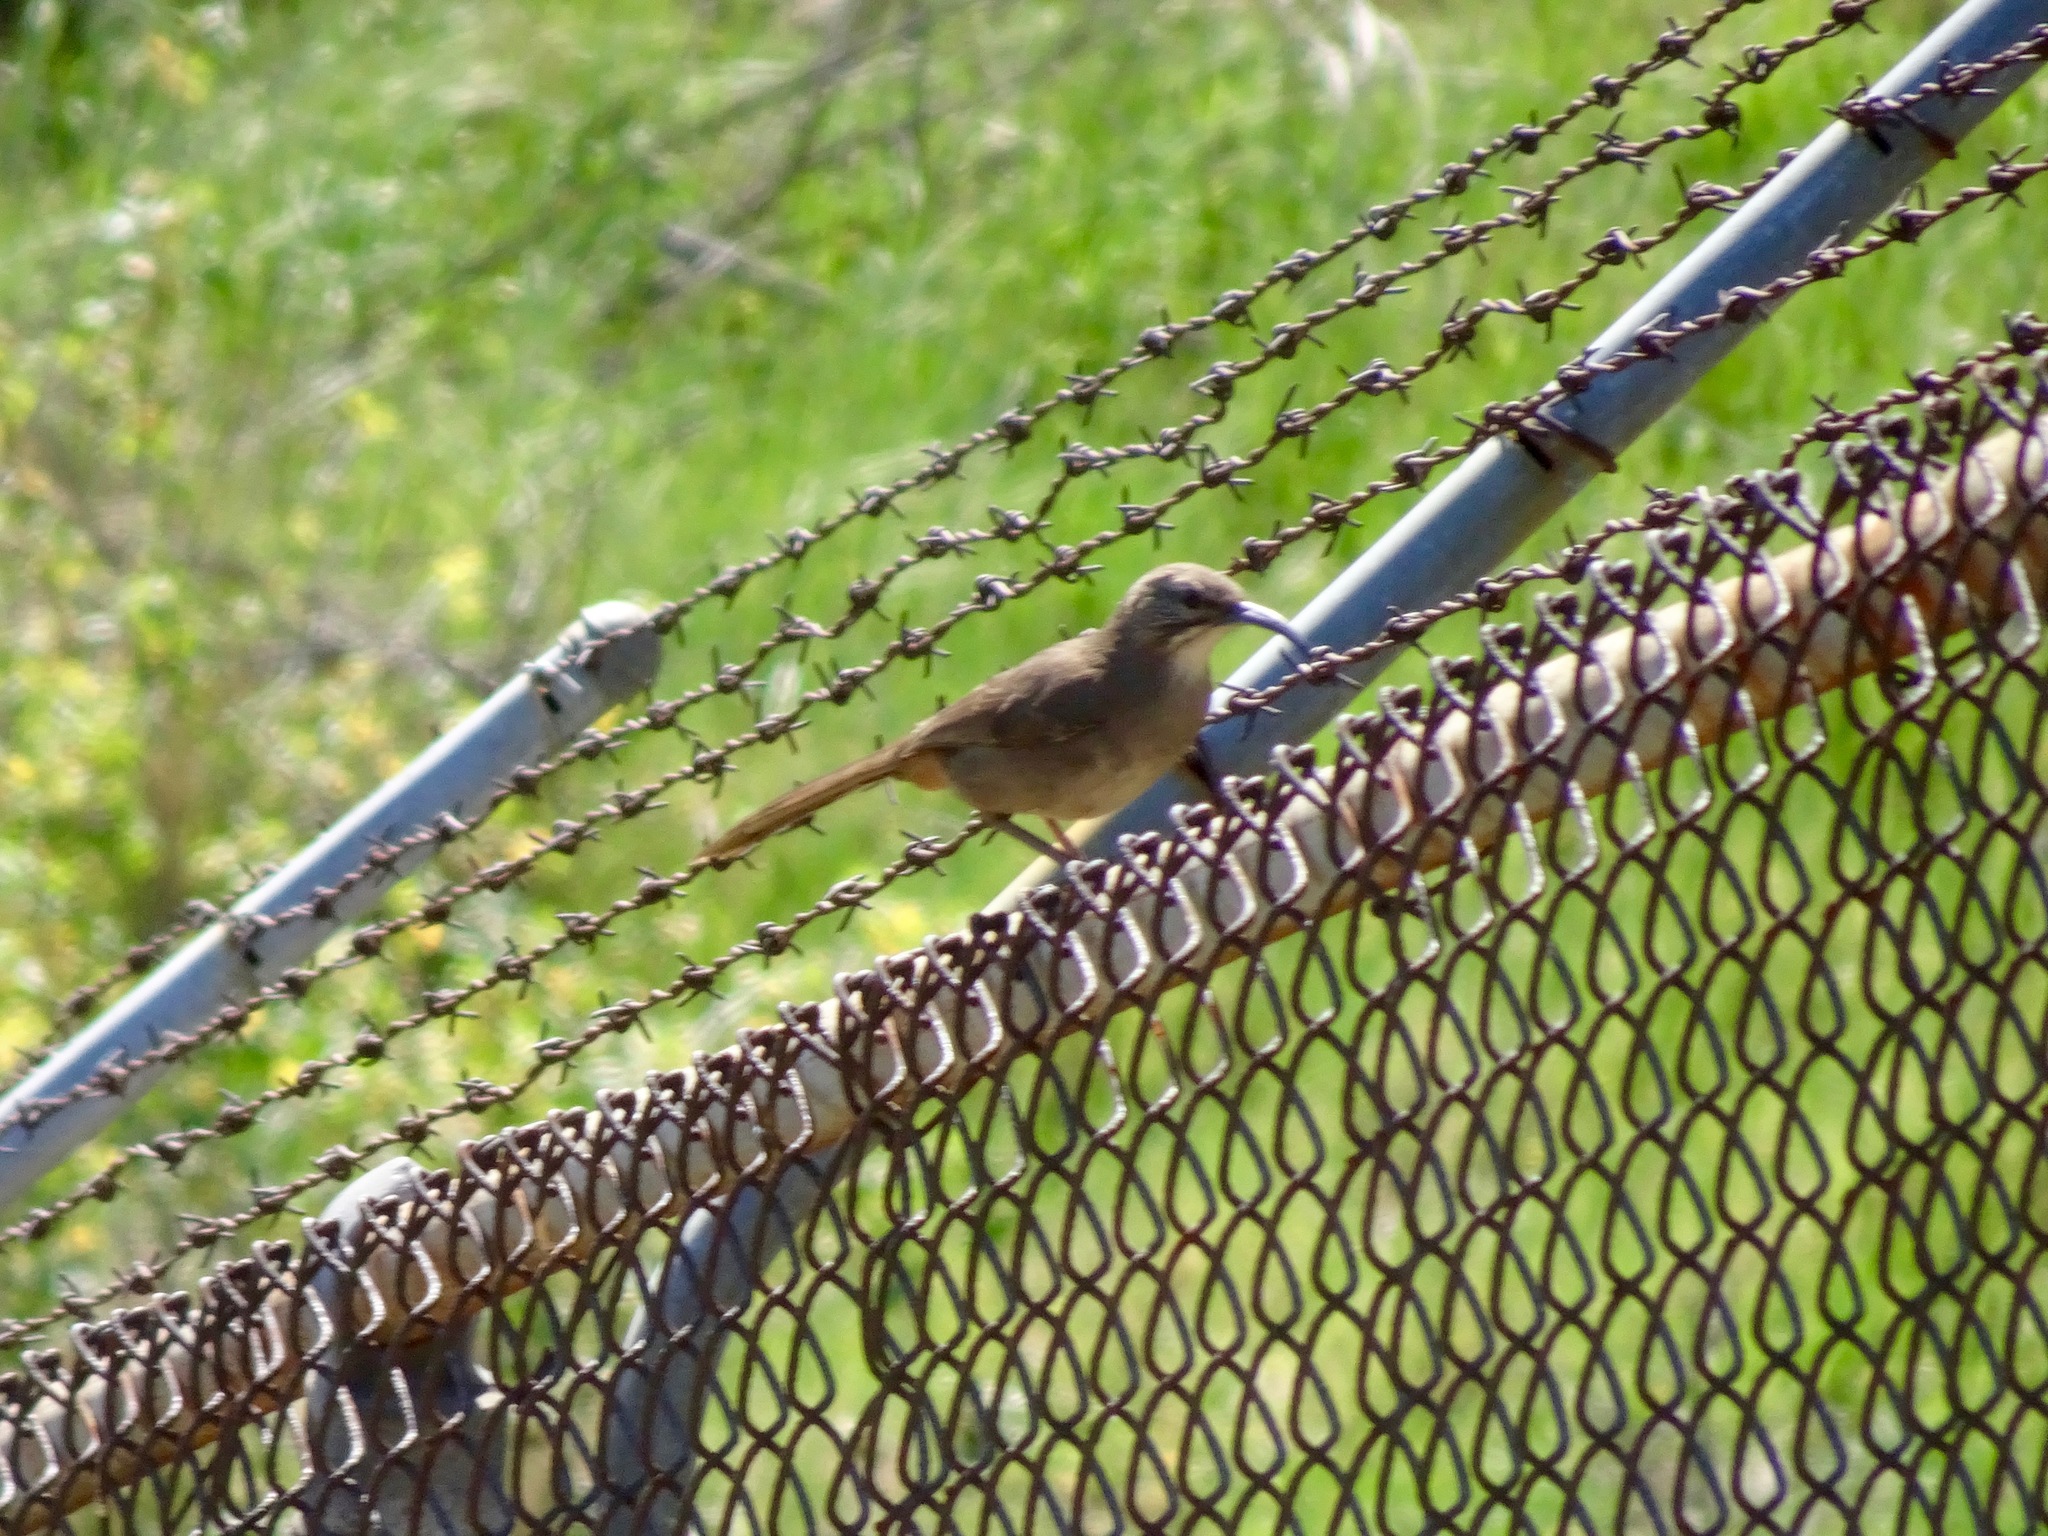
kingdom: Animalia
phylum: Chordata
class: Aves
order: Passeriformes
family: Mimidae
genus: Toxostoma
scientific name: Toxostoma redivivum
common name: California thrasher
